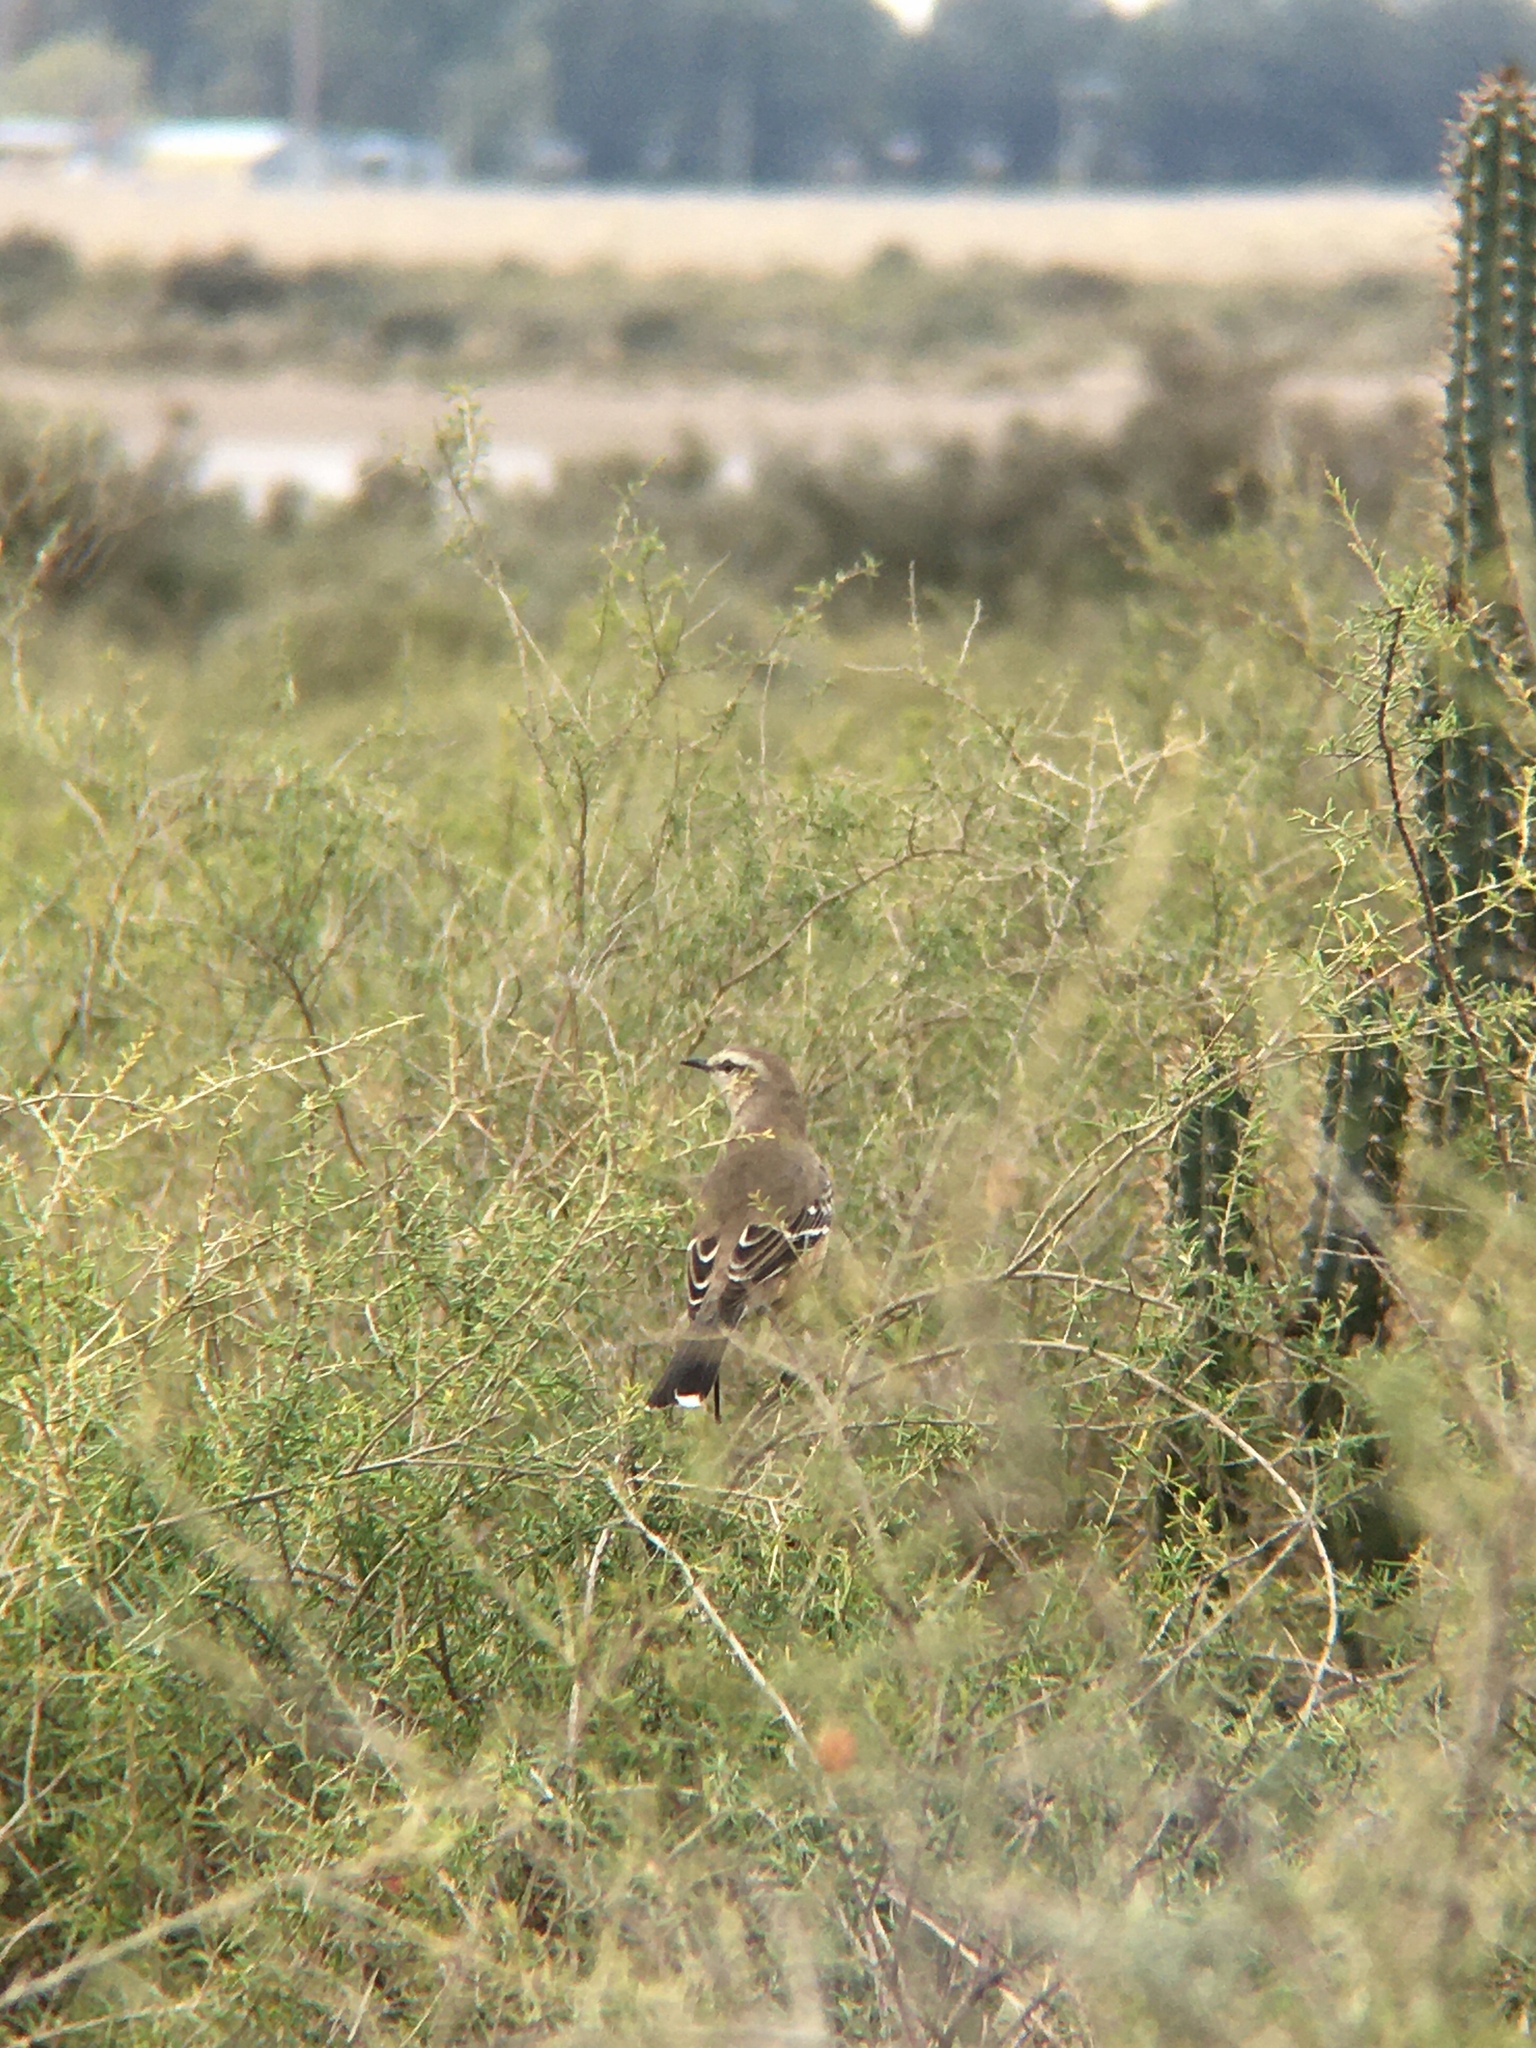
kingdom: Animalia
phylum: Chordata
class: Aves
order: Passeriformes
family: Mimidae
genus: Mimus
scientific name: Mimus patagonicus
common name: Patagonian mockingbird
